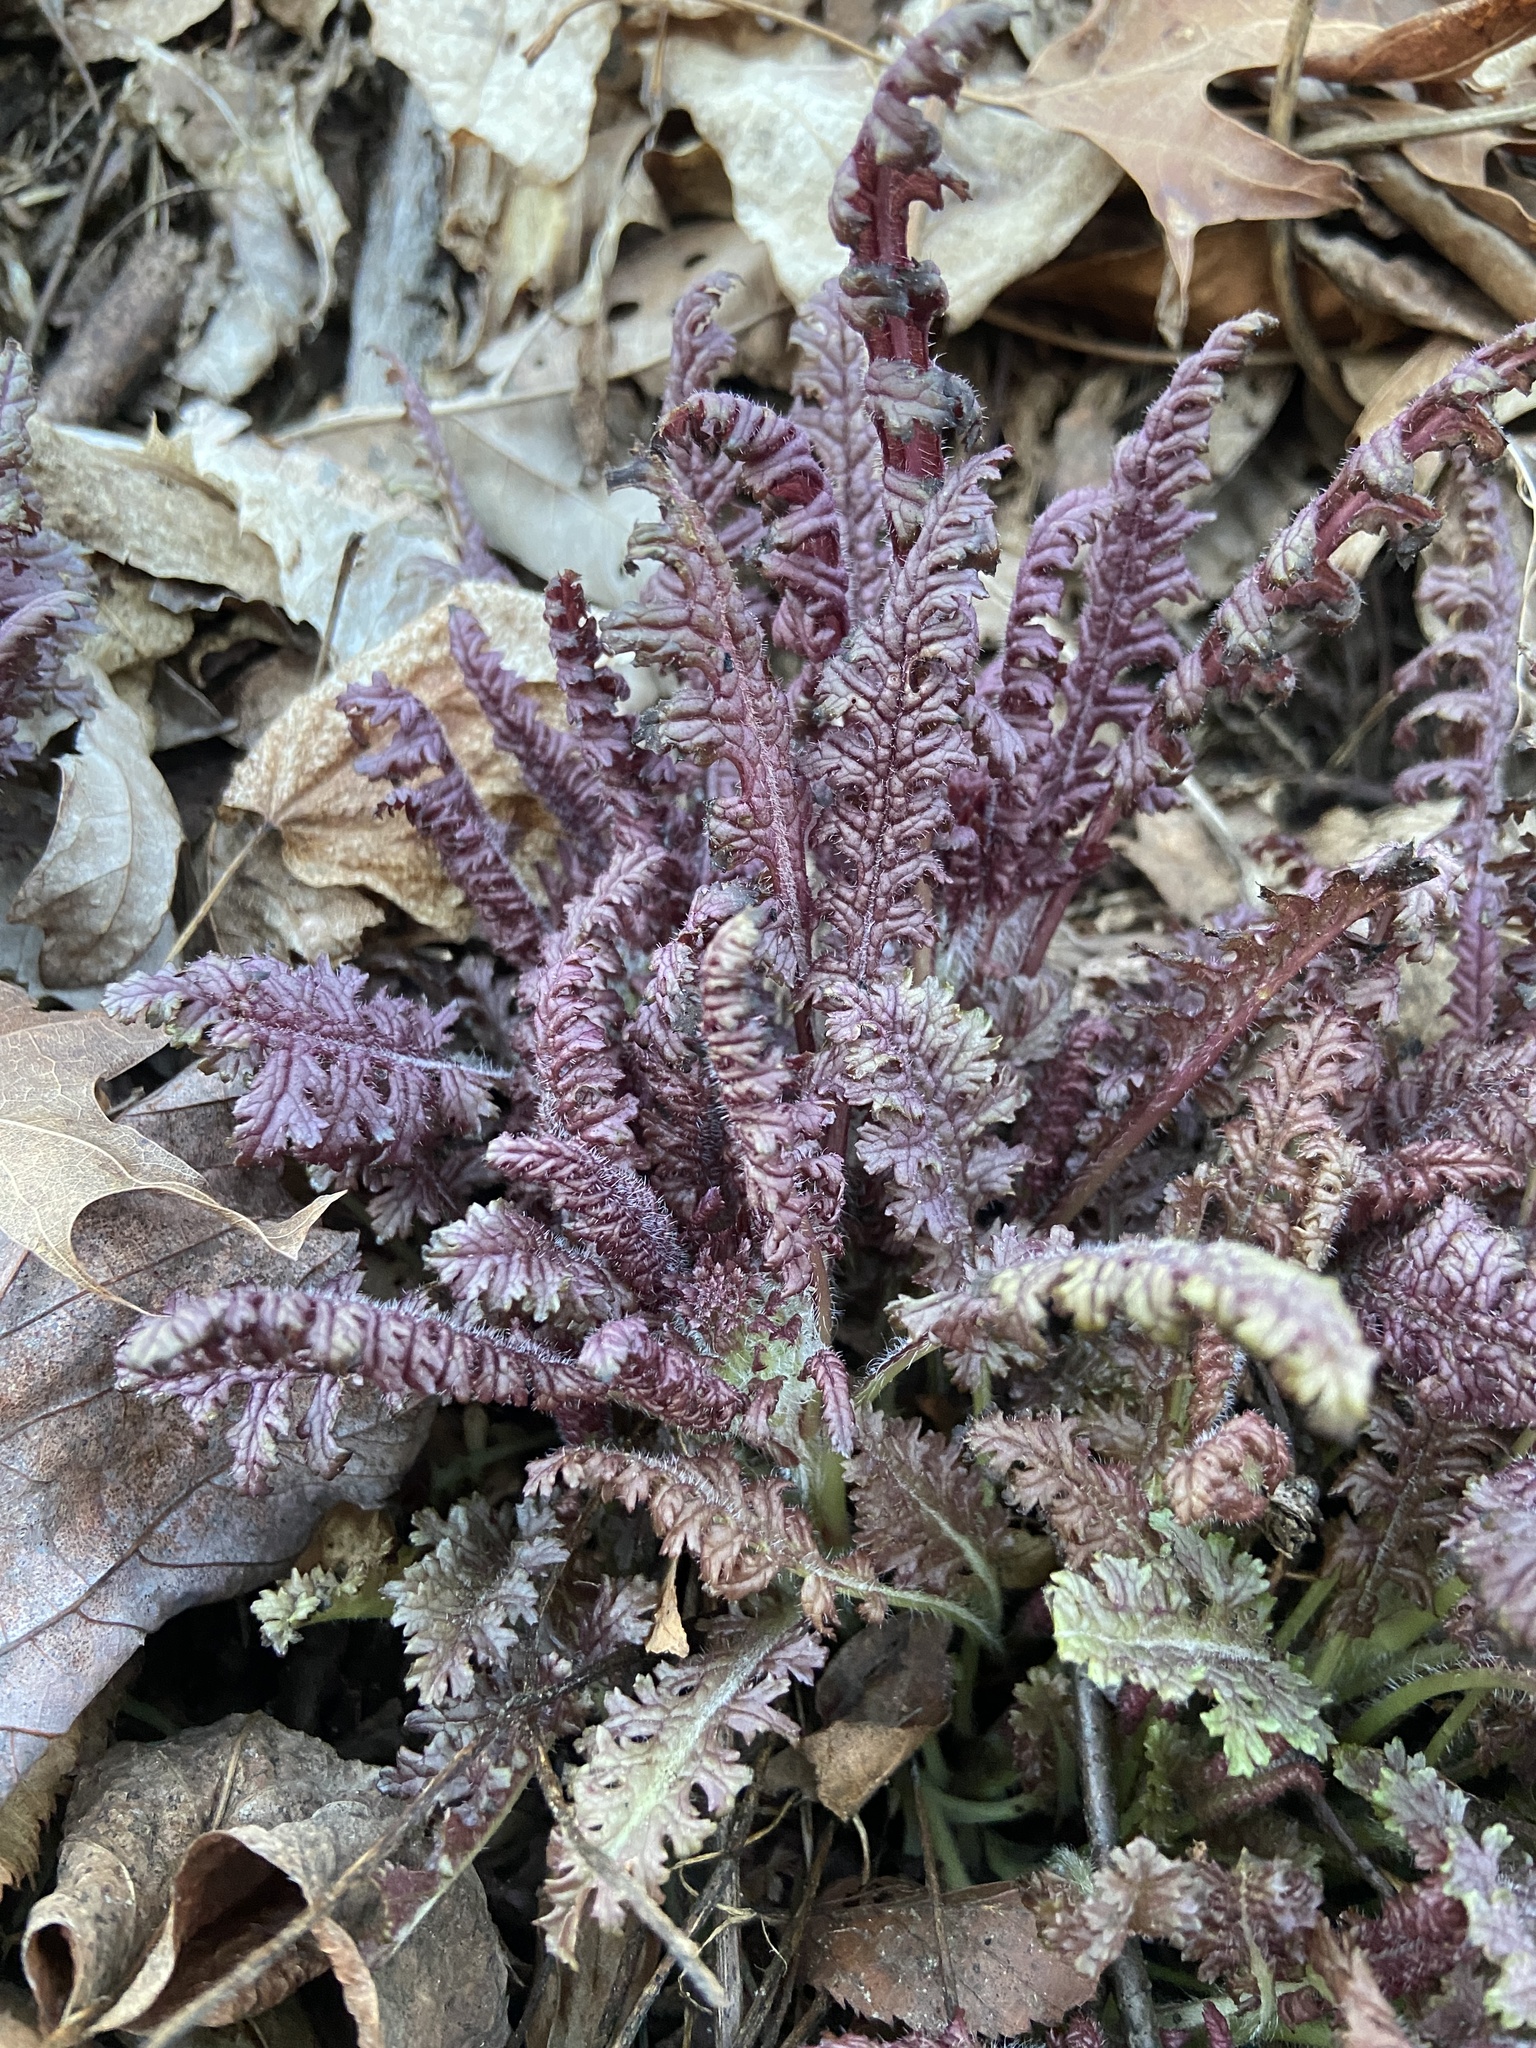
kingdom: Plantae
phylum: Tracheophyta
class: Magnoliopsida
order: Lamiales
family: Orobanchaceae
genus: Pedicularis
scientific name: Pedicularis canadensis
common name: Early lousewort
